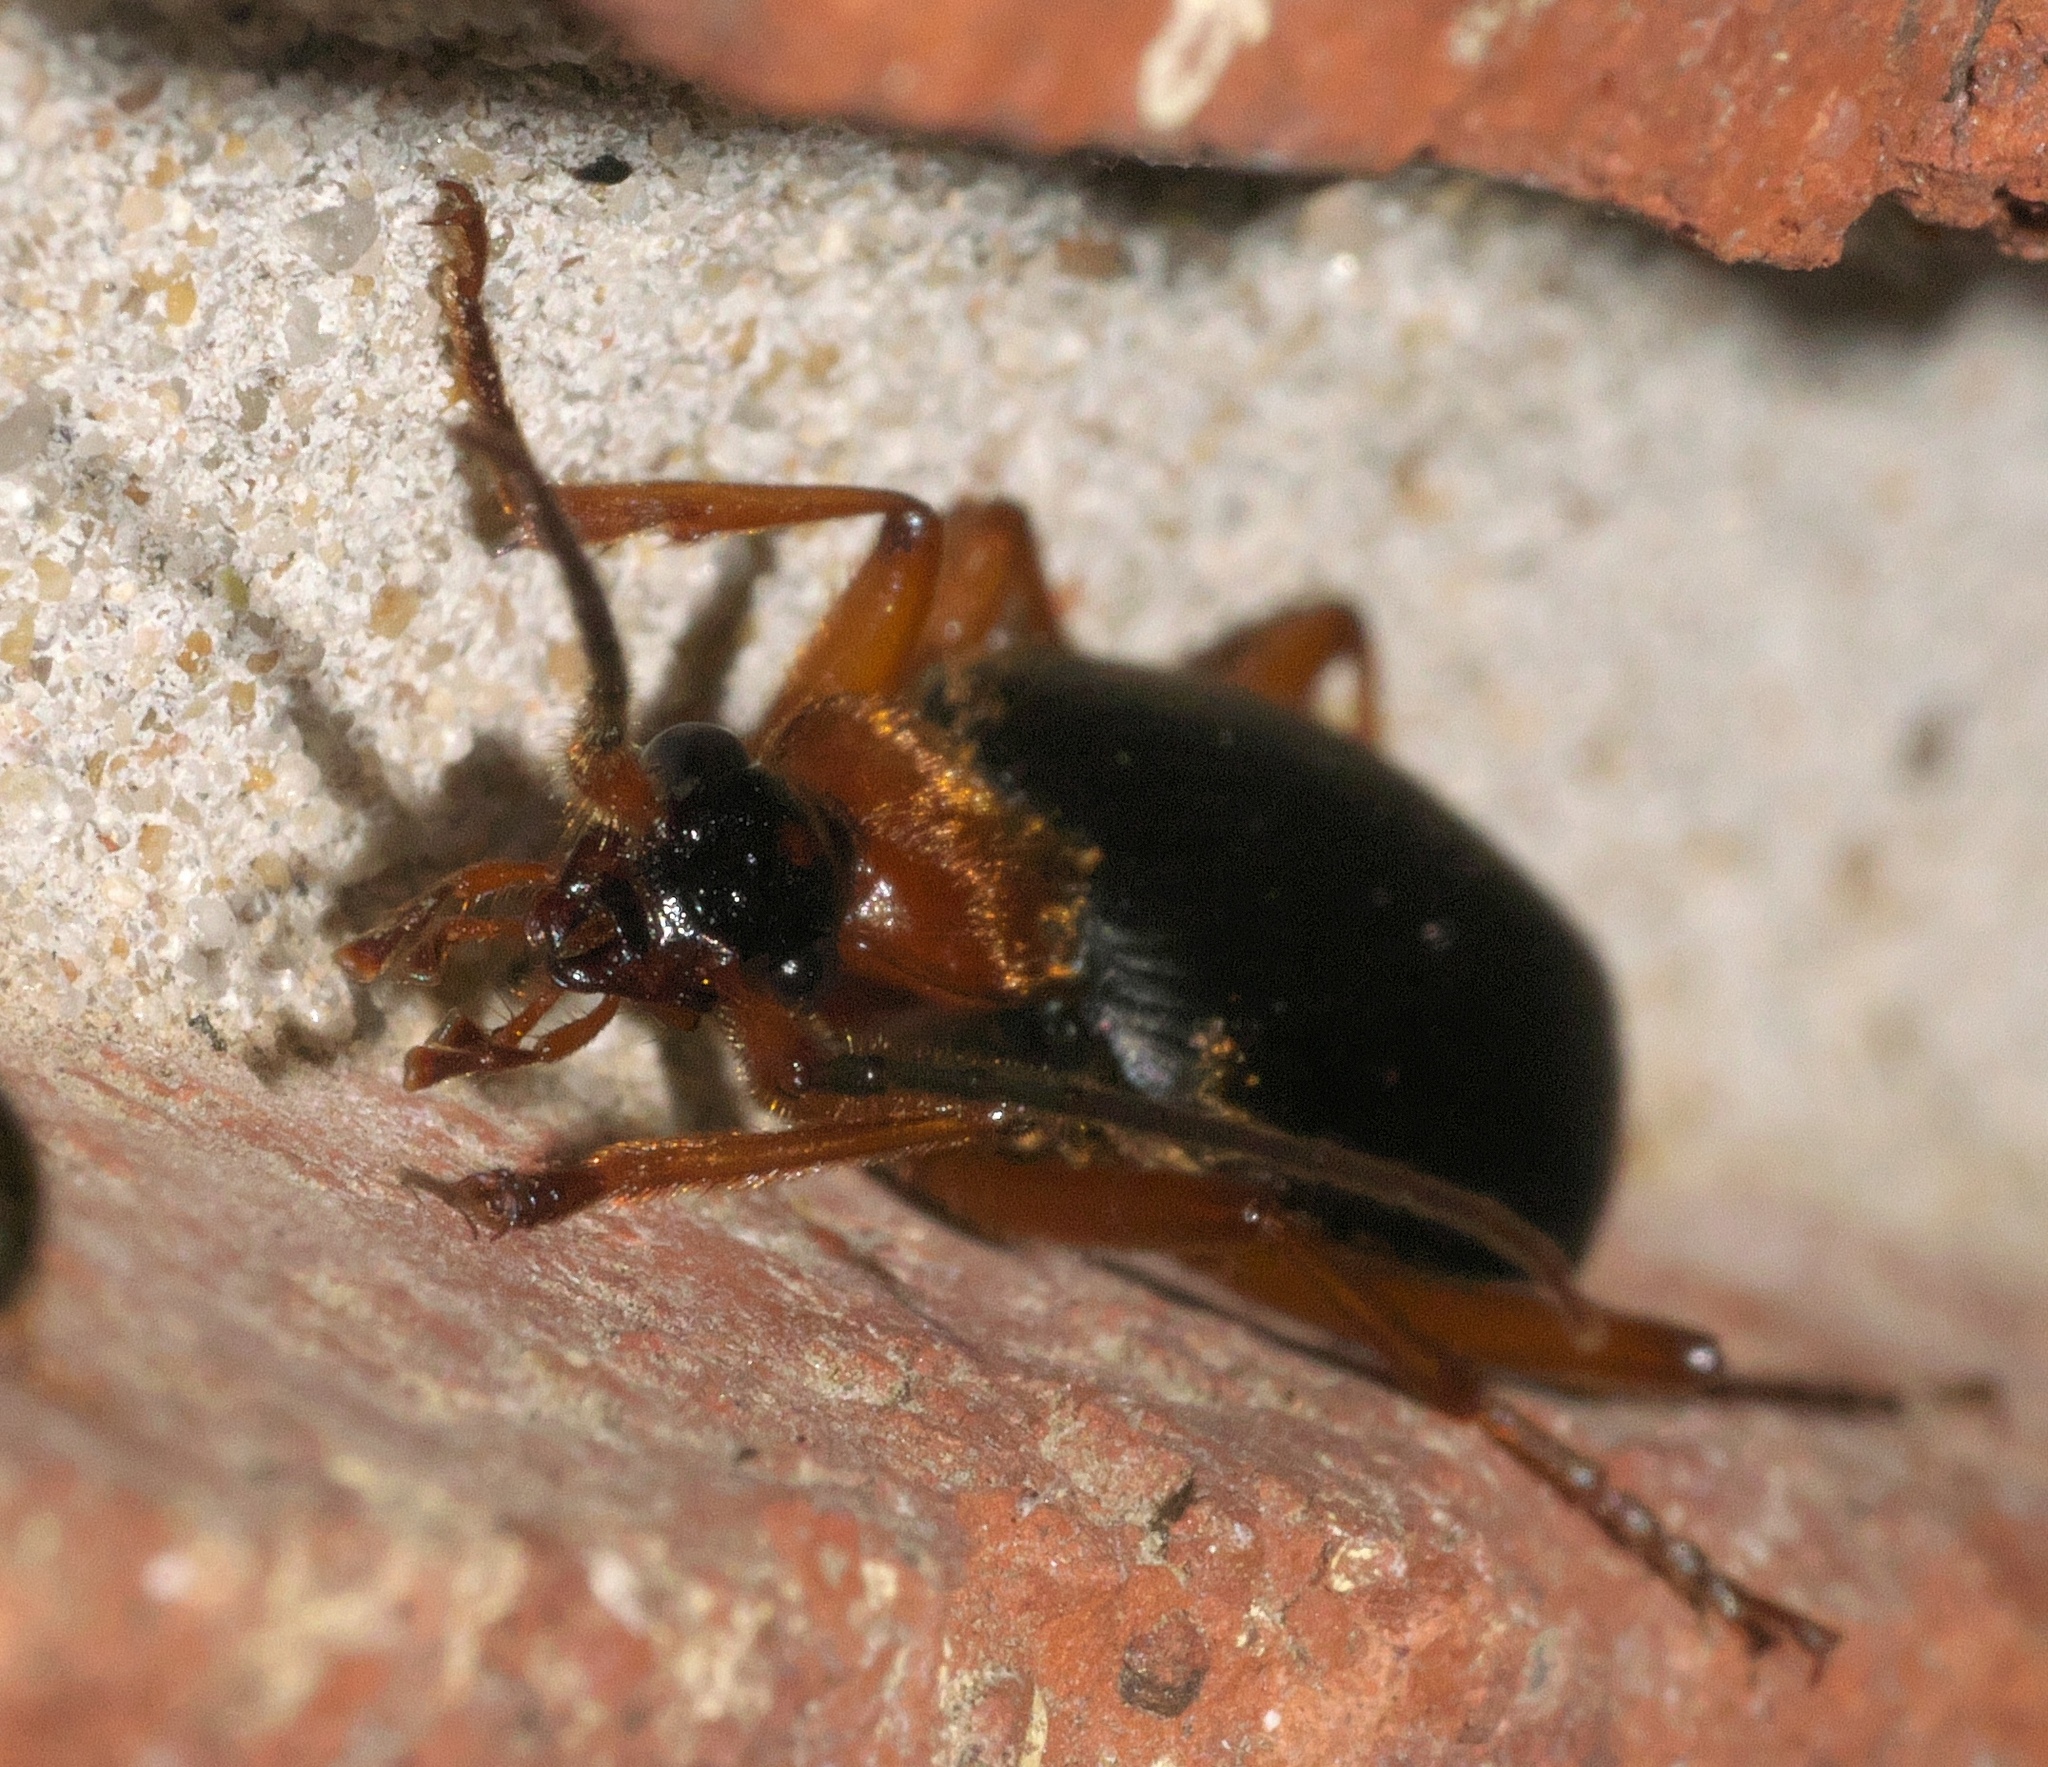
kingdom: Animalia
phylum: Arthropoda
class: Insecta
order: Coleoptera
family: Carabidae
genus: Galerita
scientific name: Galerita bicolor
